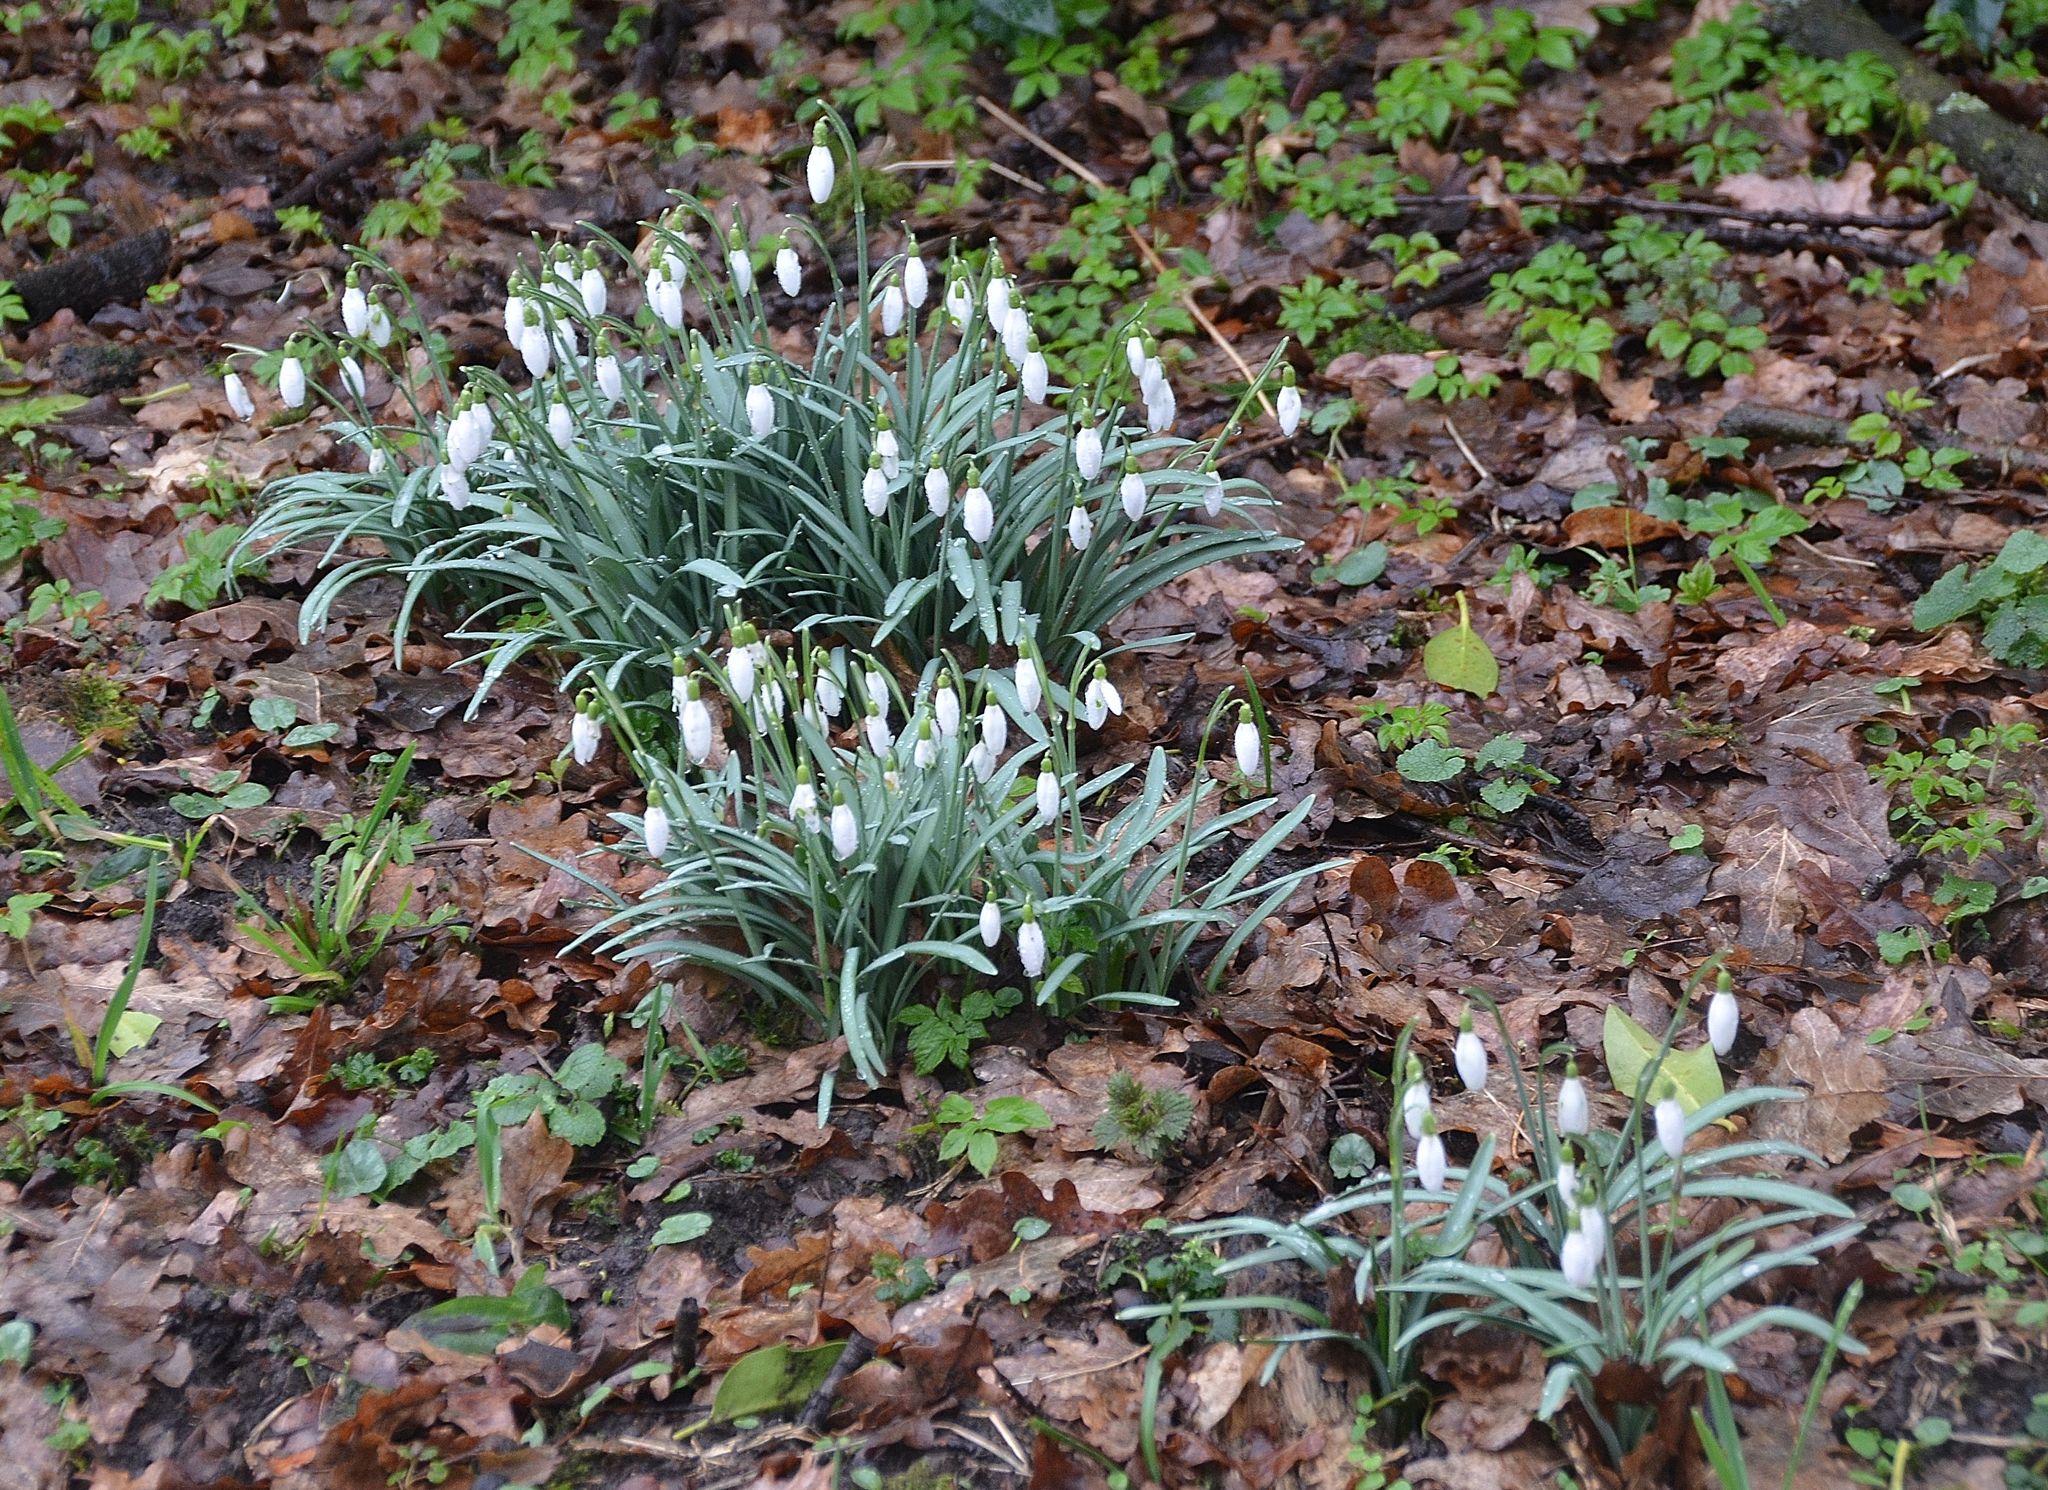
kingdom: Plantae
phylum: Tracheophyta
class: Liliopsida
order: Asparagales
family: Amaryllidaceae
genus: Galanthus
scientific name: Galanthus nivalis
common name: Snowdrop
